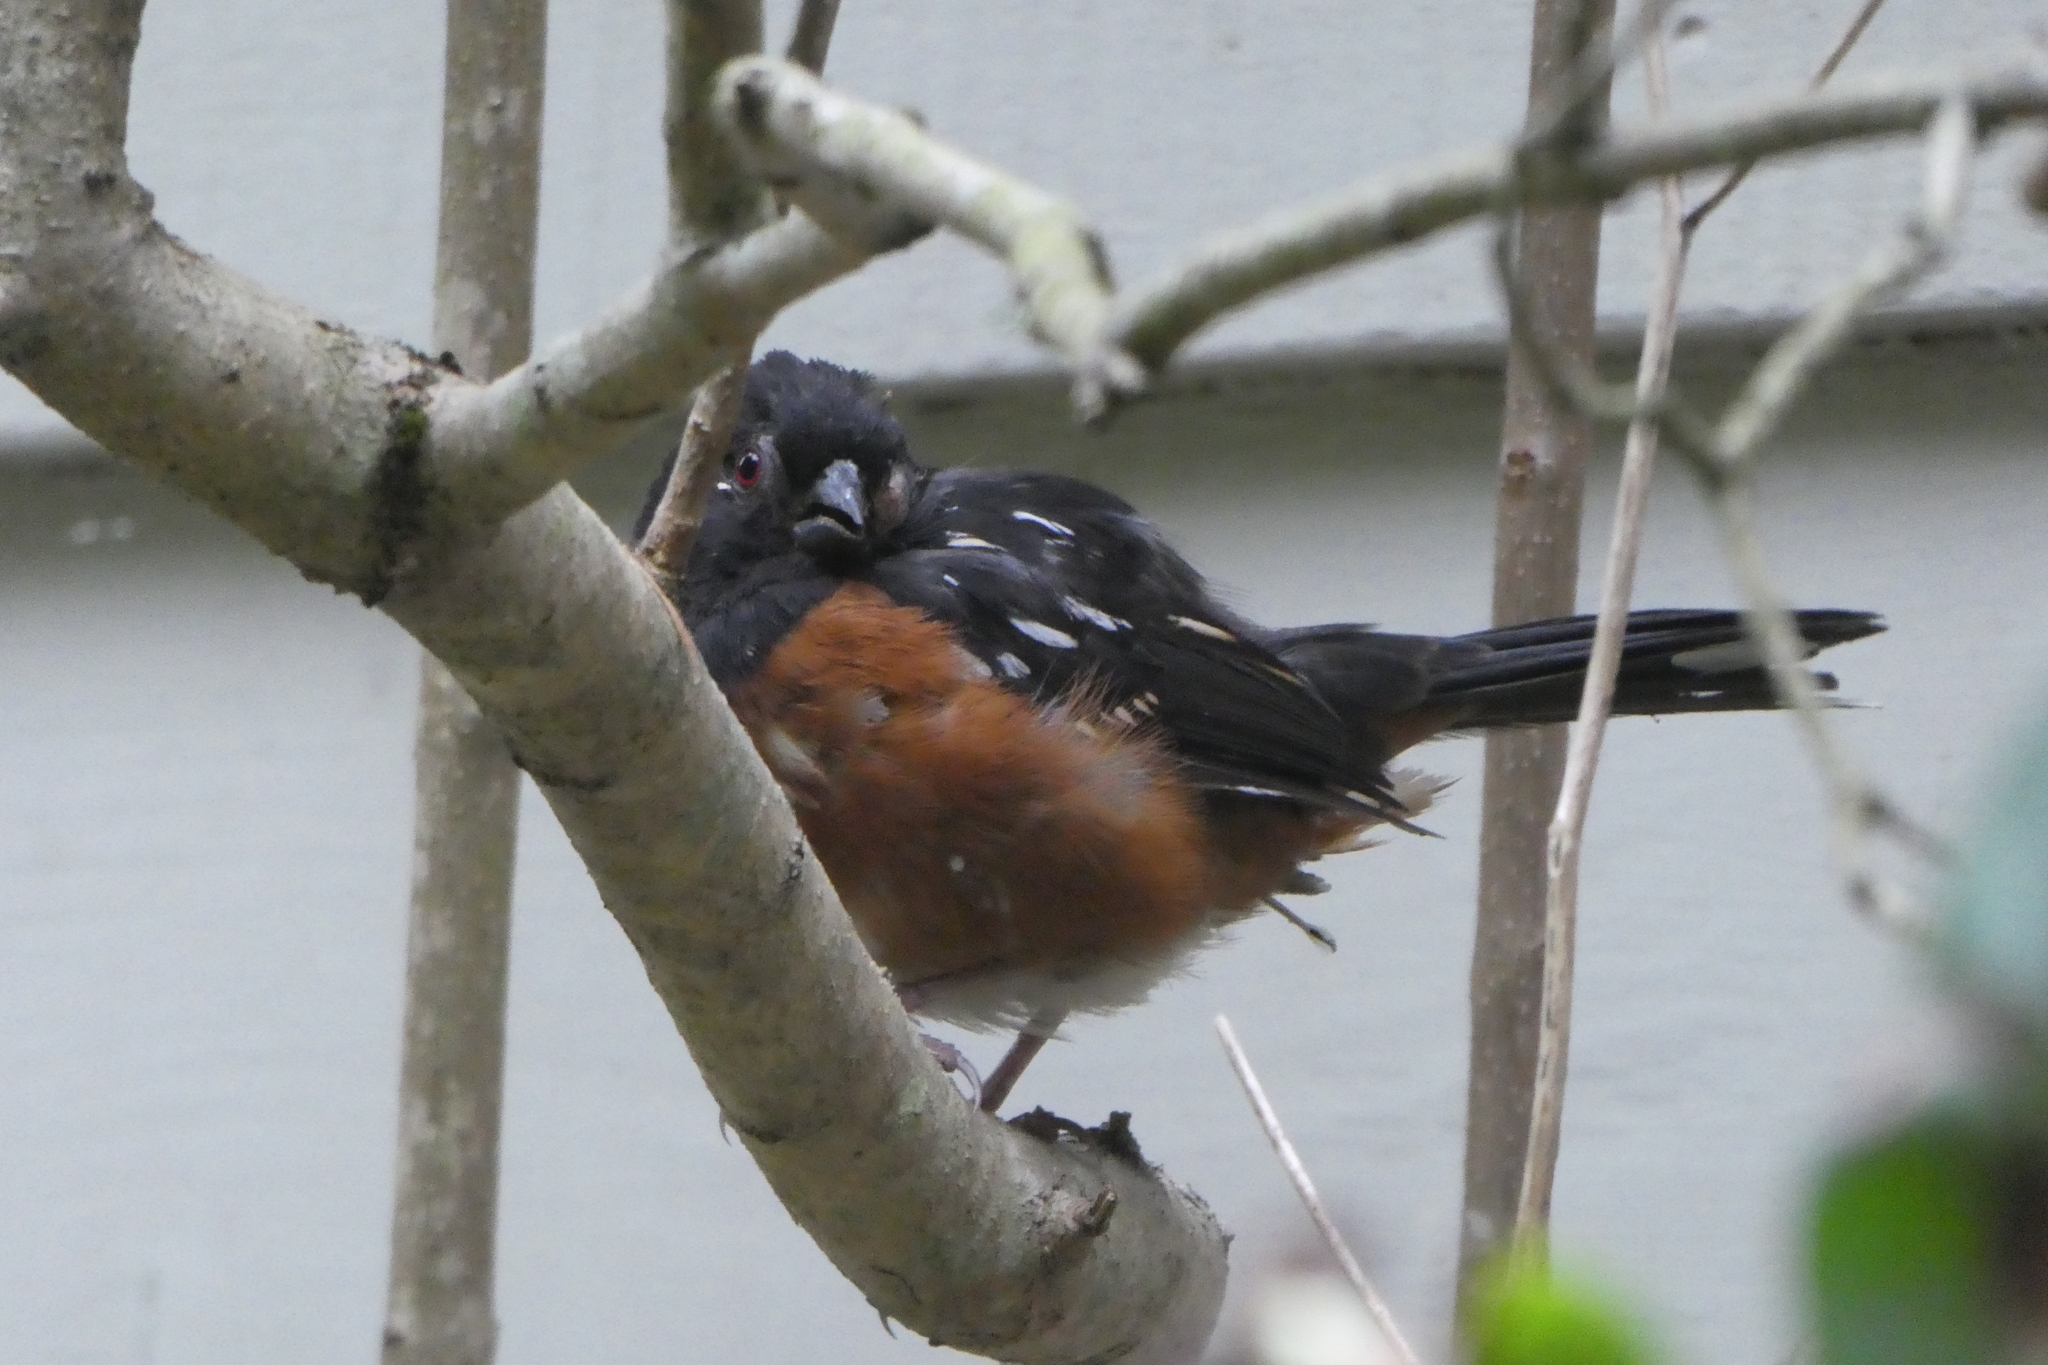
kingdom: Animalia
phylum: Chordata
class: Aves
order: Passeriformes
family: Passerellidae
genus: Pipilo
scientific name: Pipilo maculatus
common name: Spotted towhee
